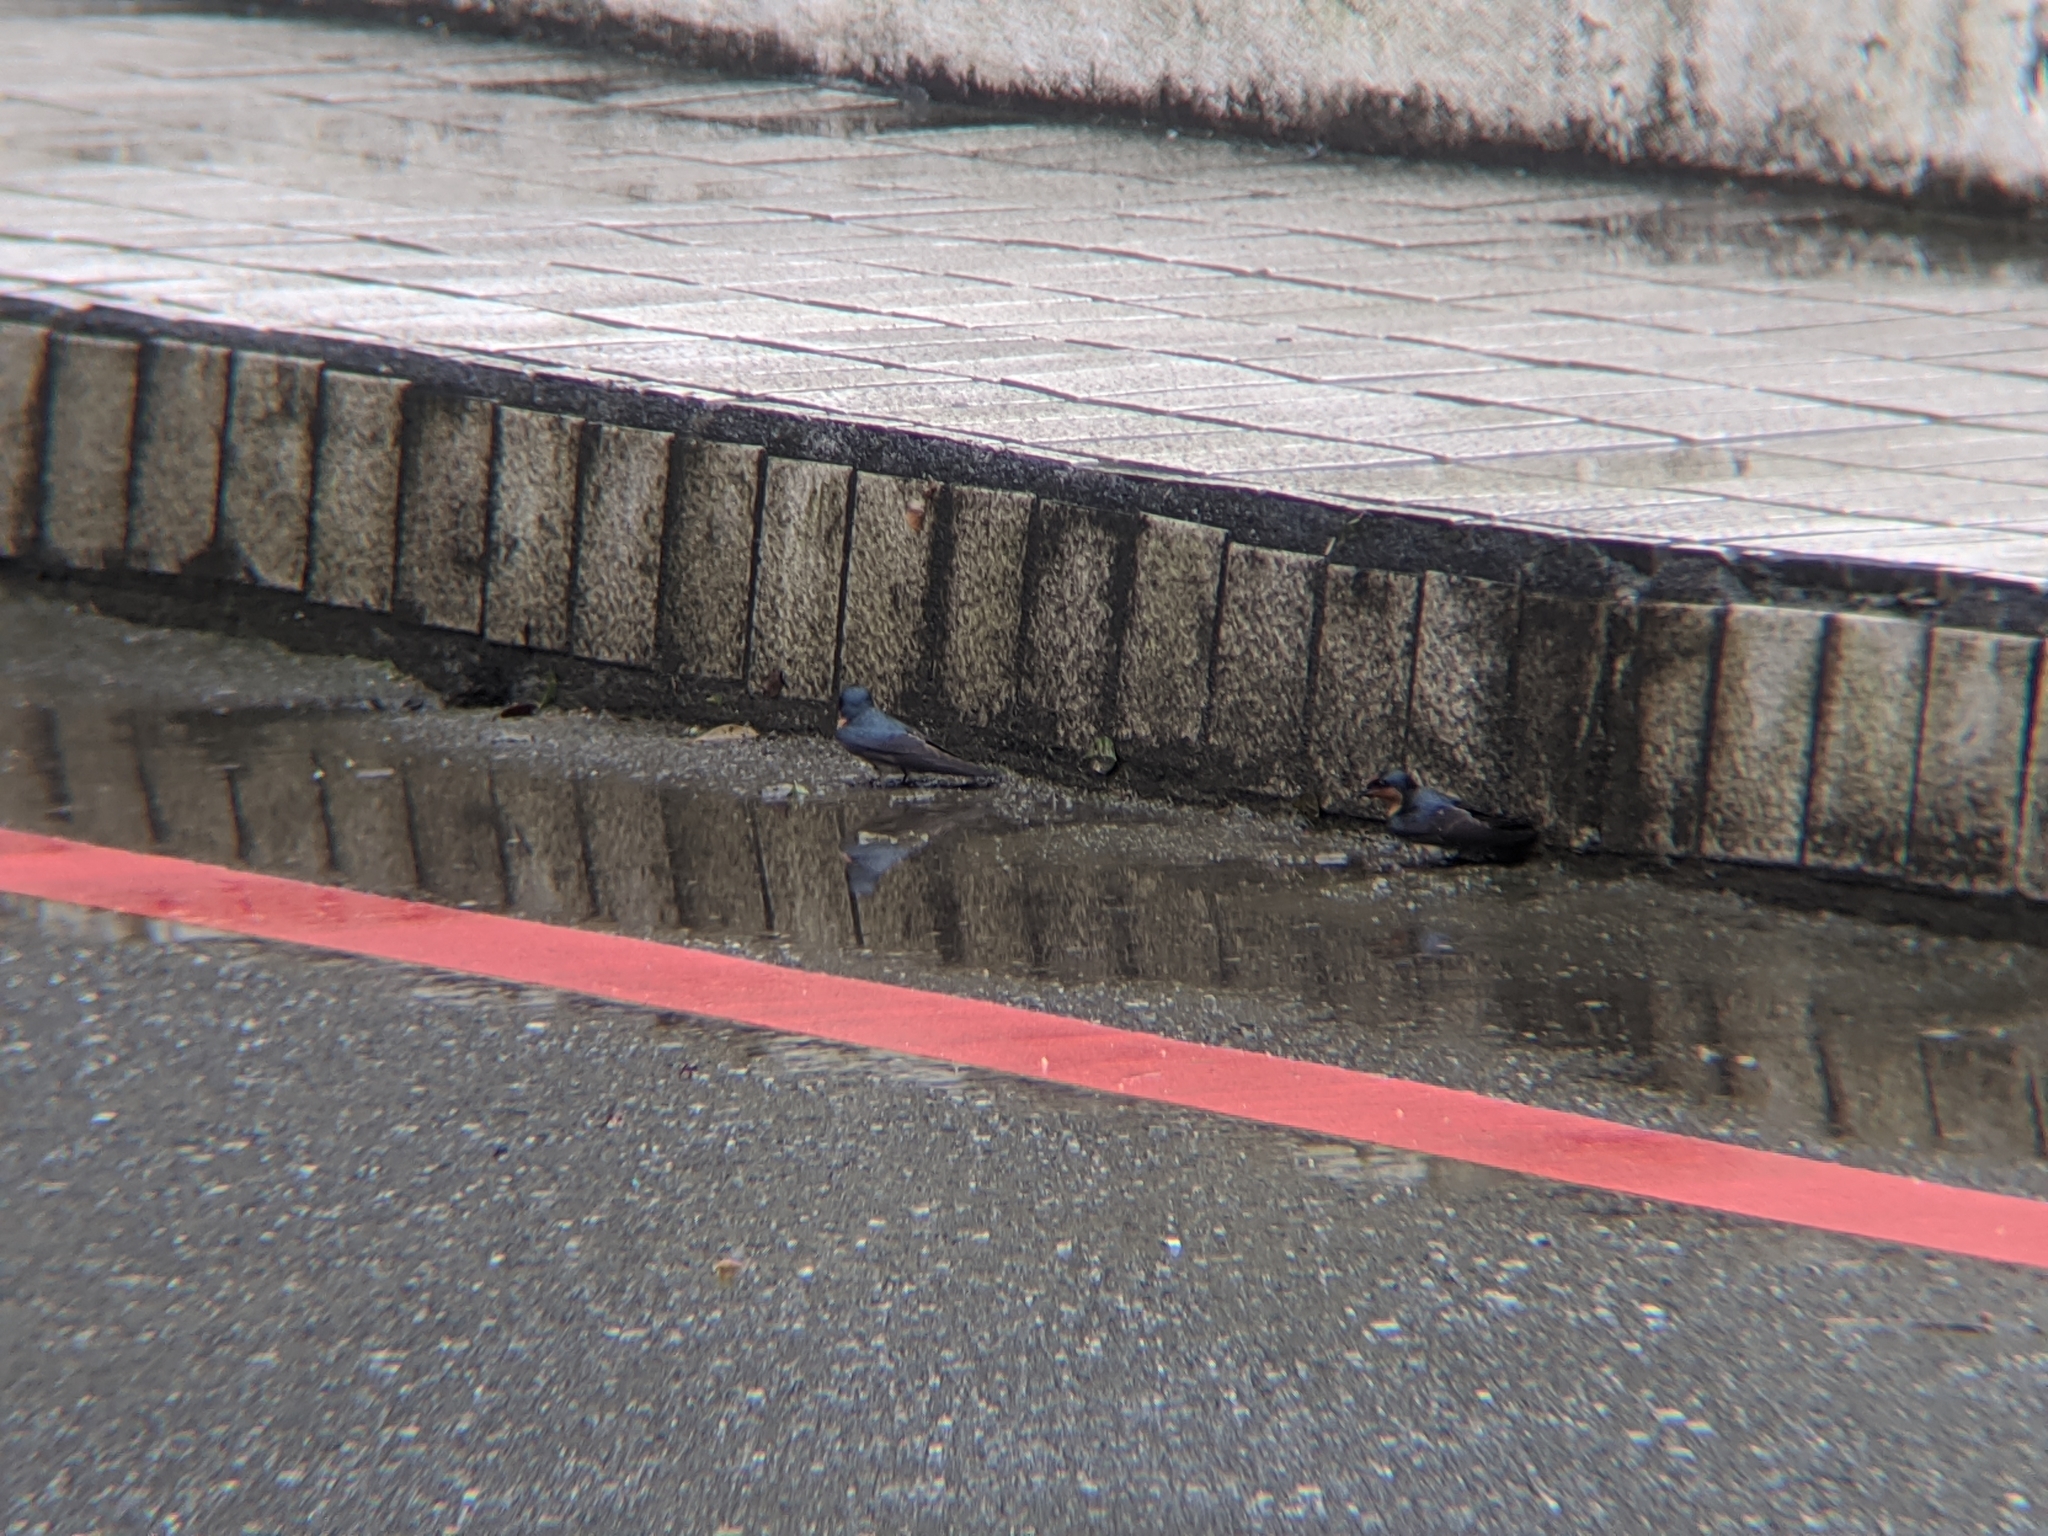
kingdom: Animalia
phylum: Chordata
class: Aves
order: Passeriformes
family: Hirundinidae
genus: Hirundo
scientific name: Hirundo tahitica
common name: Pacific swallow
